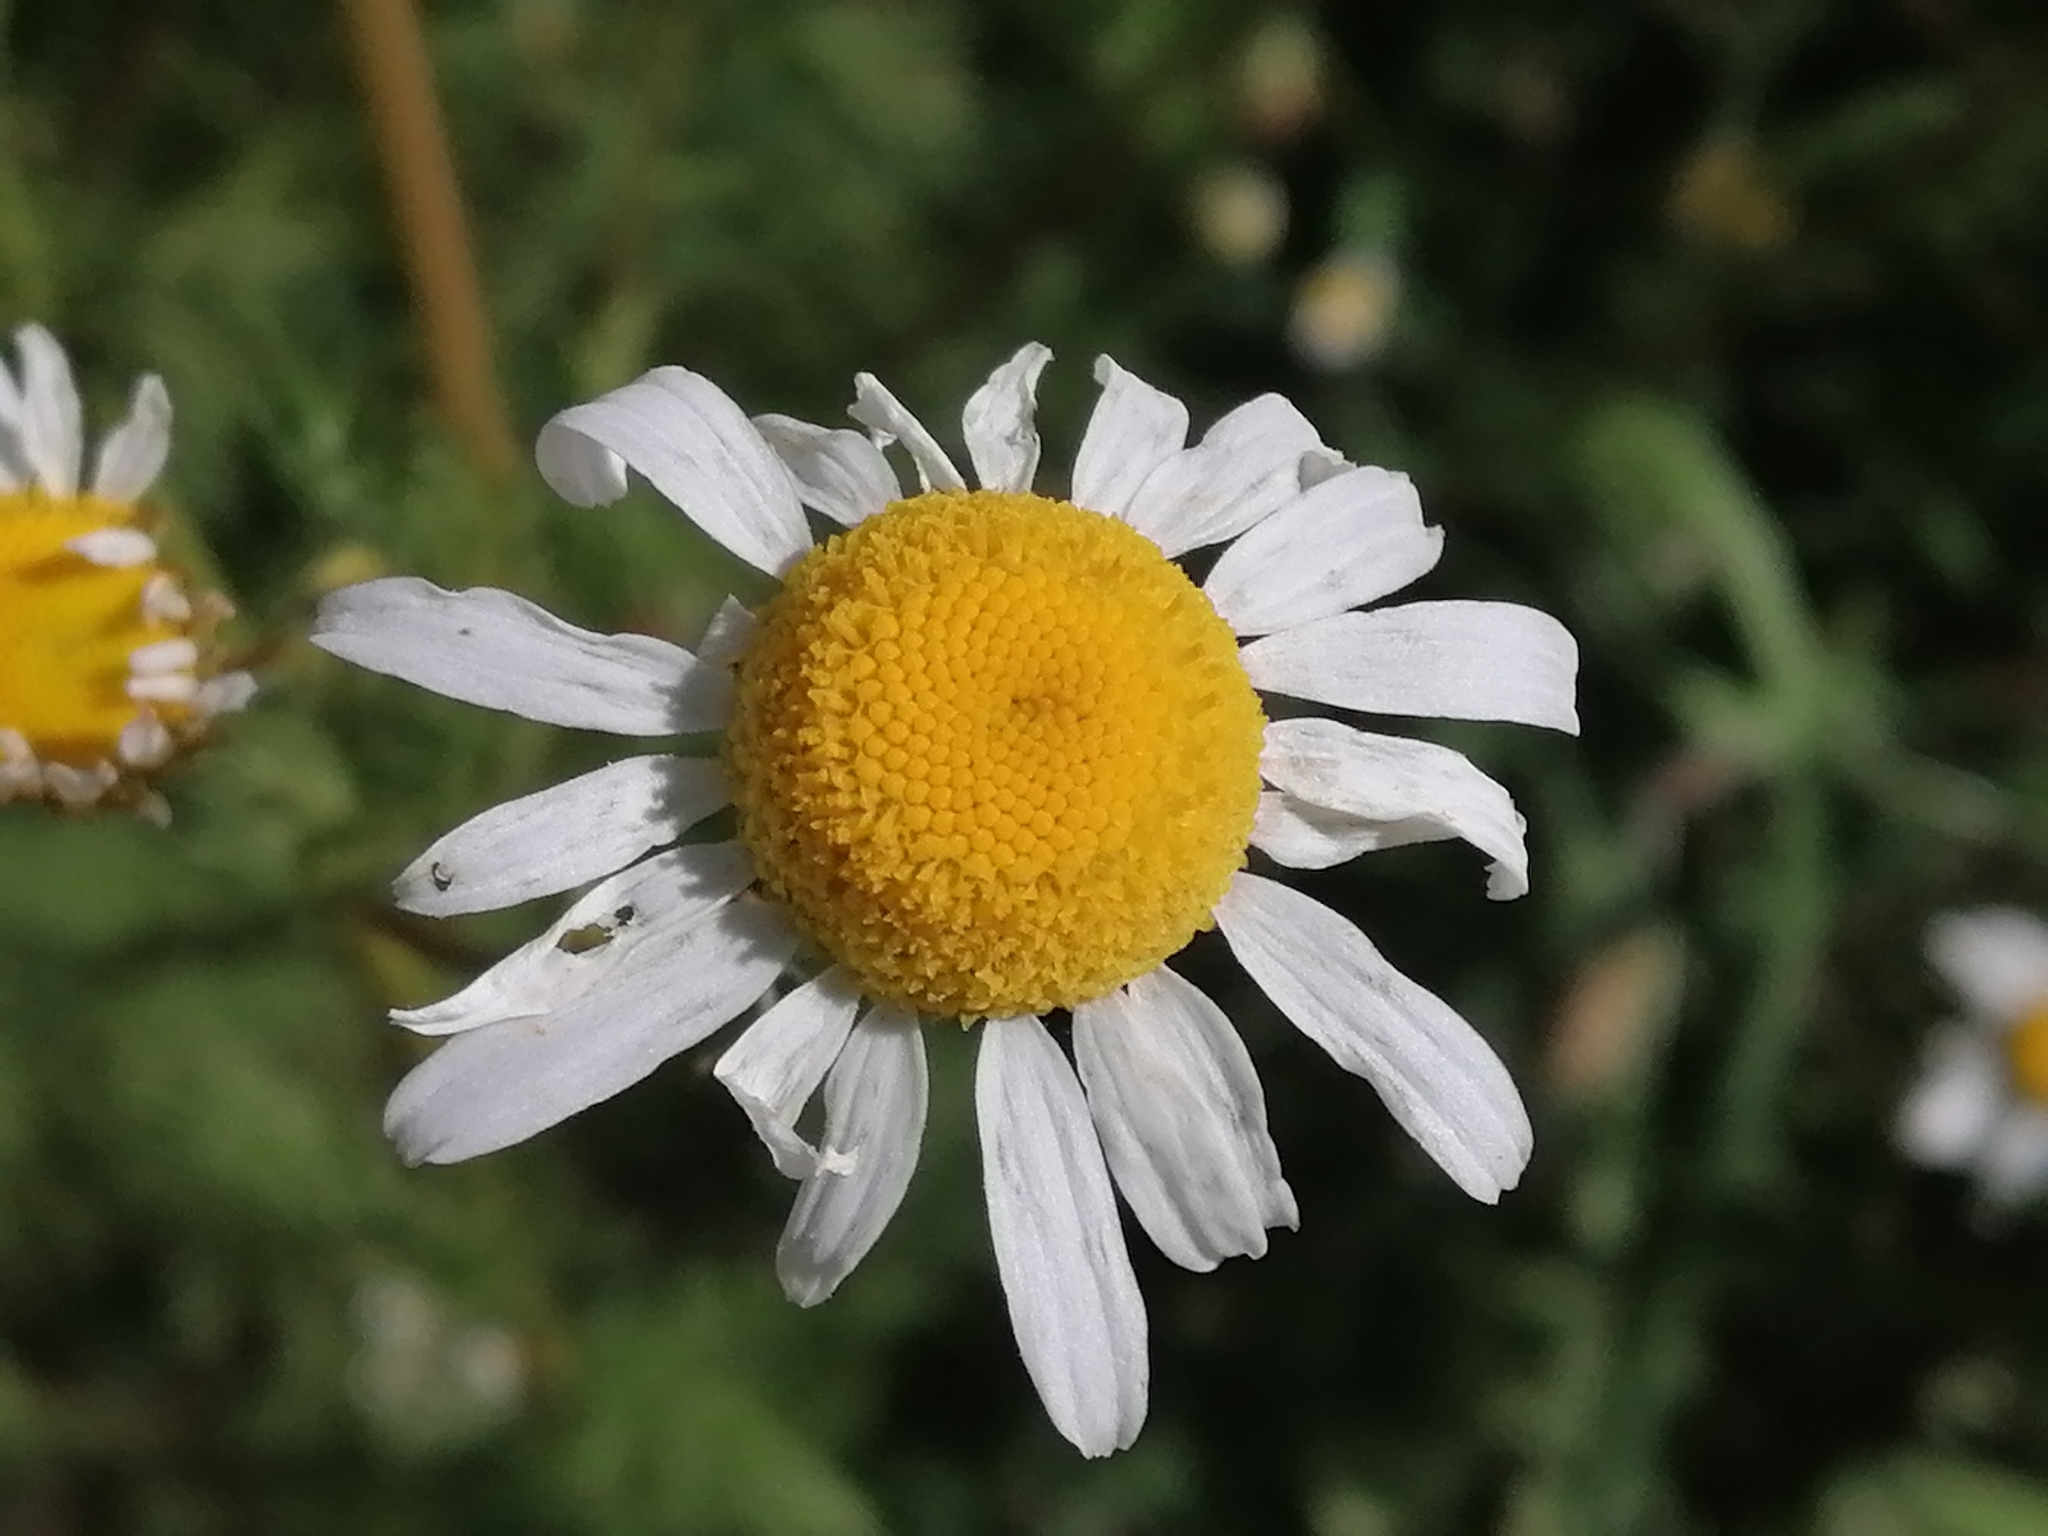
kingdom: Plantae
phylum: Tracheophyta
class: Magnoliopsida
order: Asterales
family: Asteraceae
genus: Tripleurospermum
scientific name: Tripleurospermum inodorum
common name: Scentless mayweed
